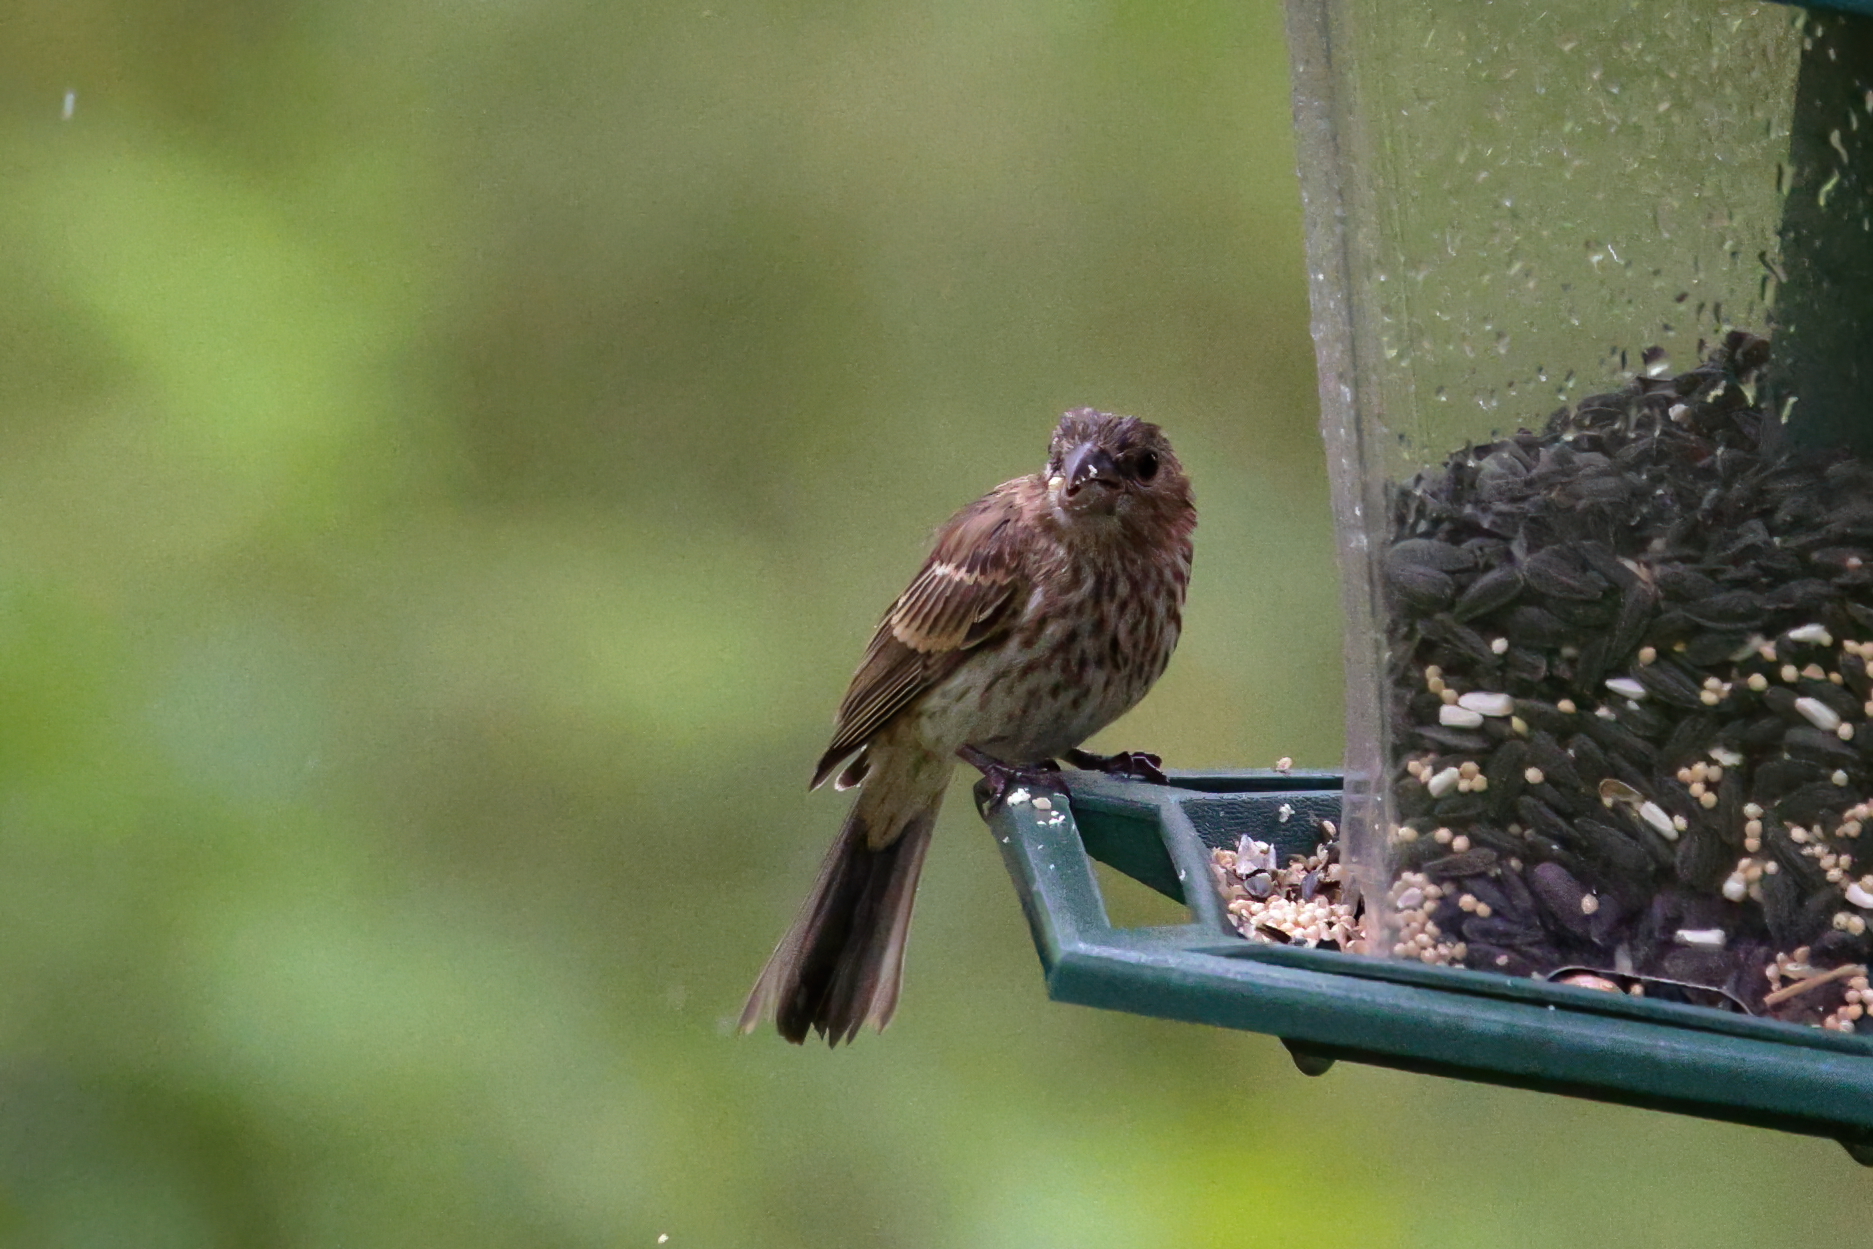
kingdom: Animalia
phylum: Chordata
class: Aves
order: Passeriformes
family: Fringillidae
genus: Haemorhous
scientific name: Haemorhous mexicanus
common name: House finch
